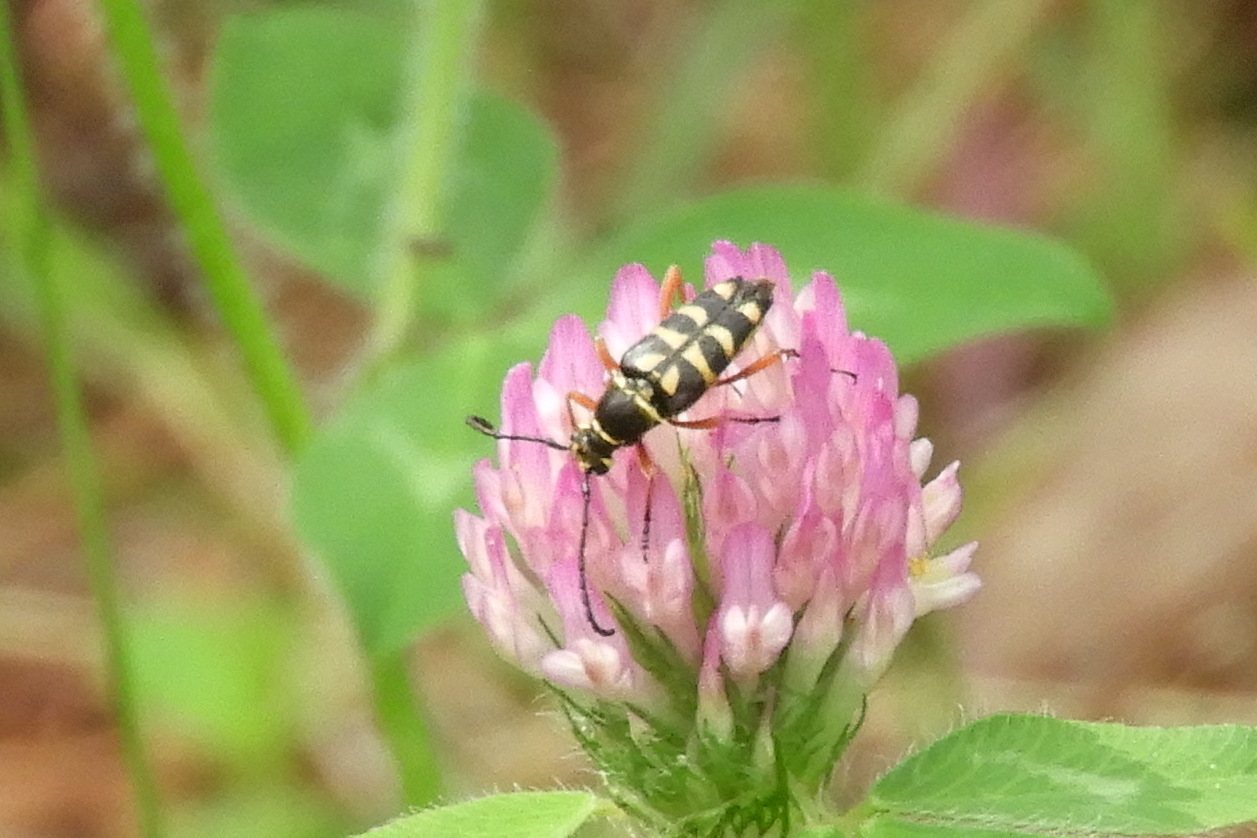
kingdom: Animalia
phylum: Arthropoda
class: Insecta
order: Coleoptera
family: Cerambycidae
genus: Typocerus
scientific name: Typocerus zebra
